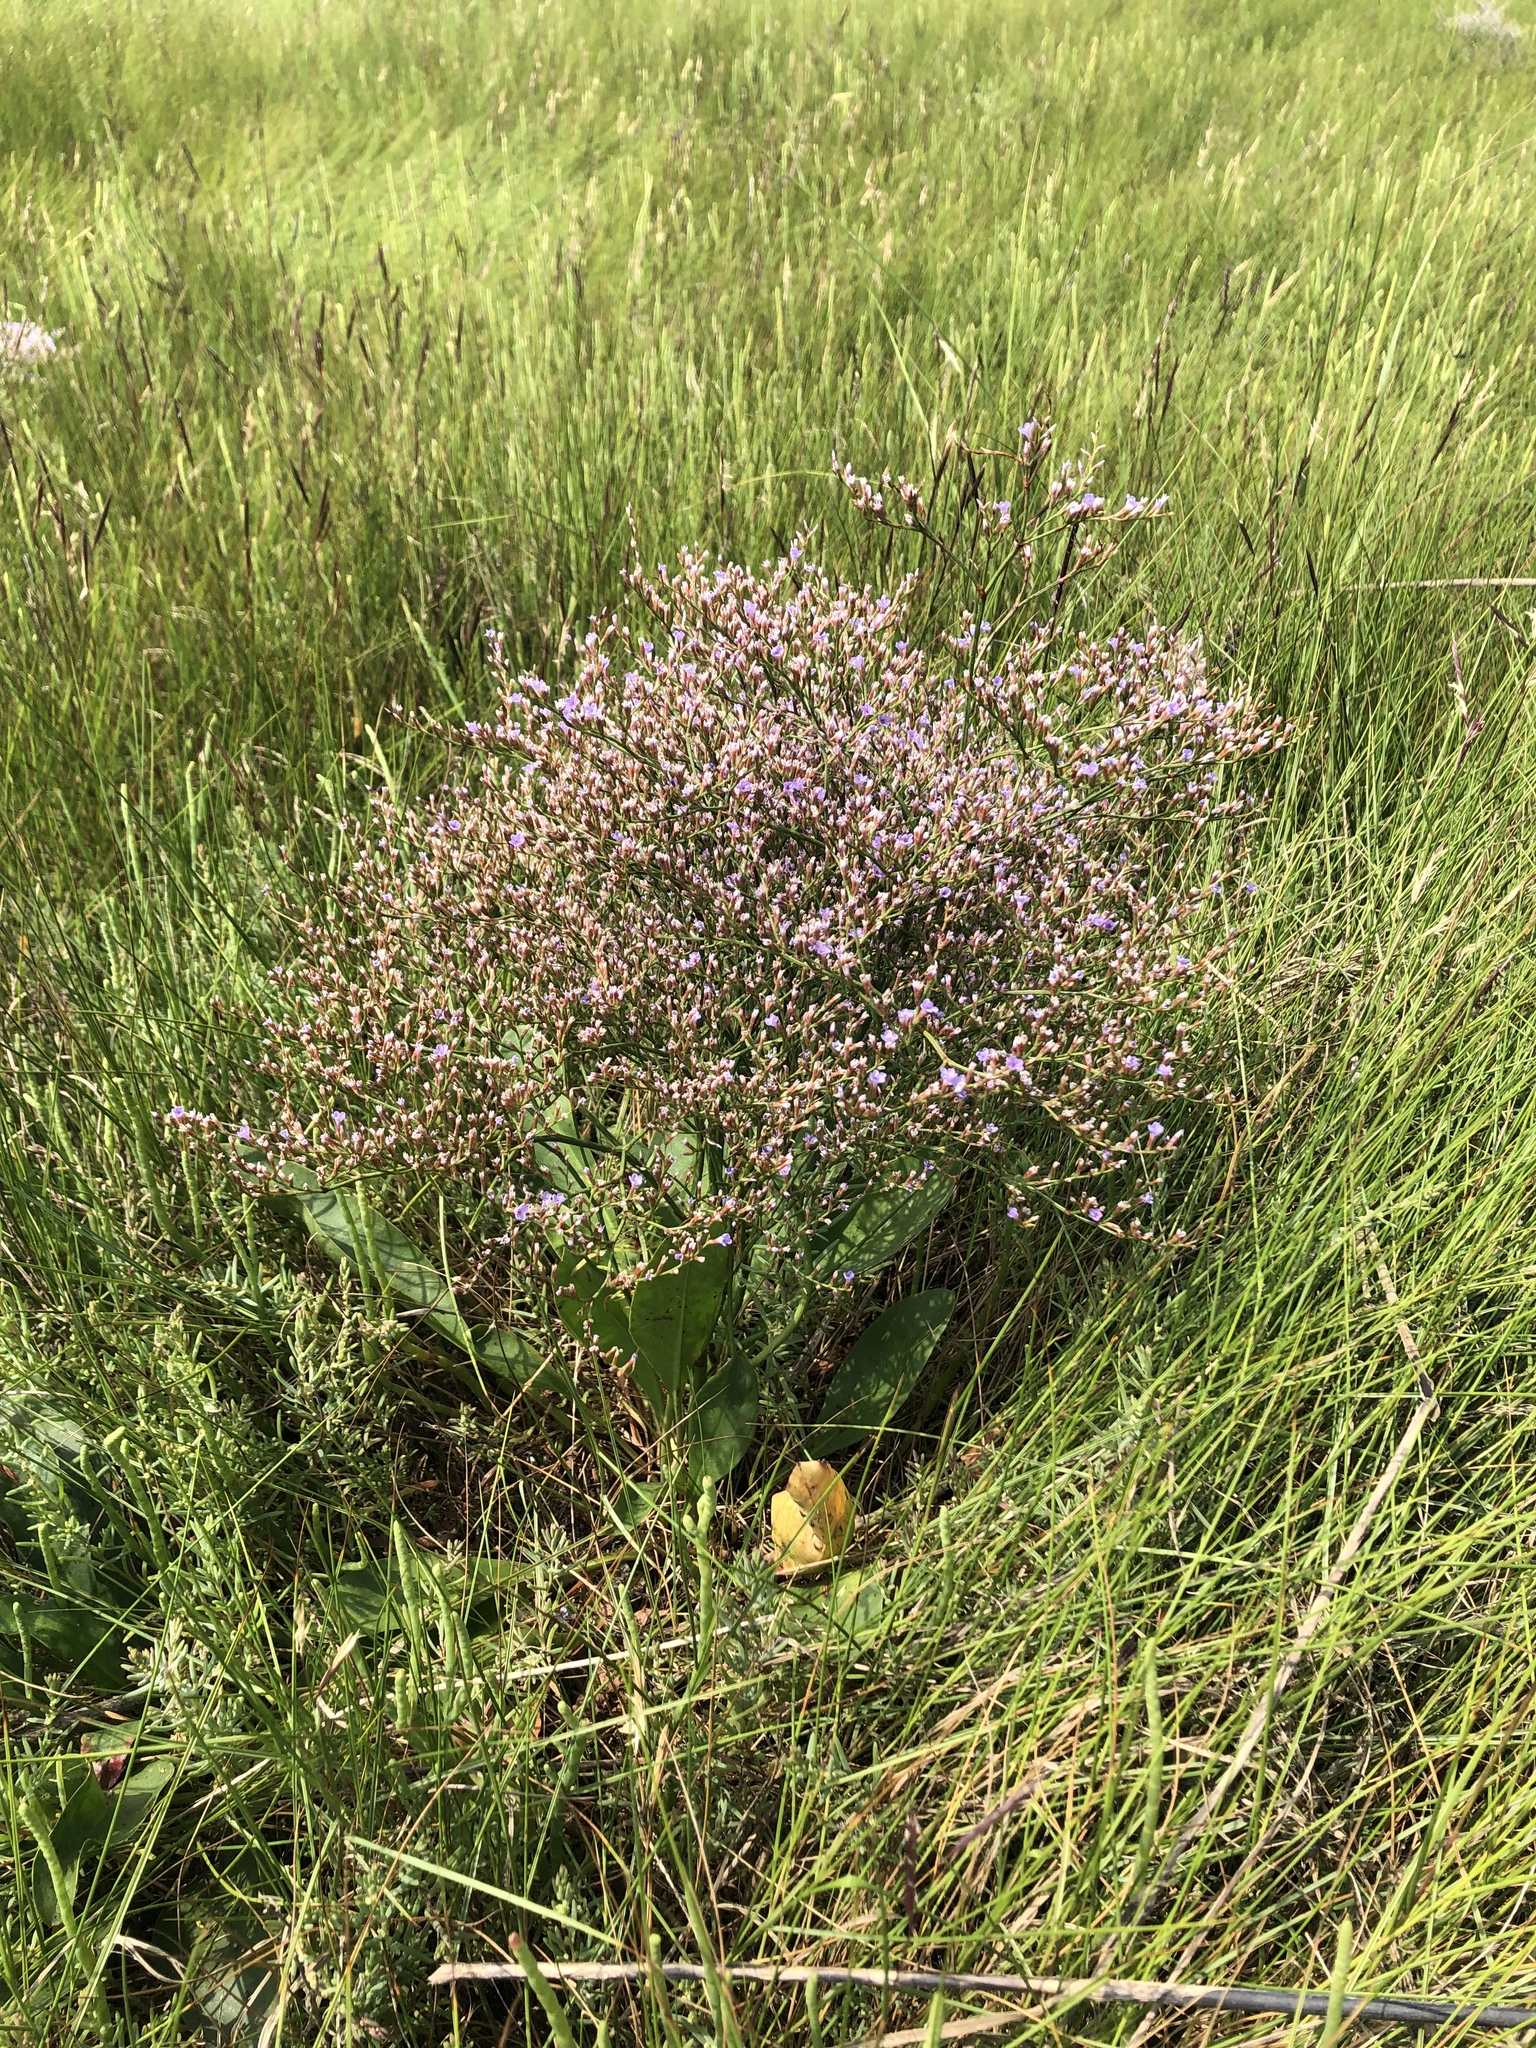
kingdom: Plantae
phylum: Tracheophyta
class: Magnoliopsida
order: Caryophyllales
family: Plumbaginaceae
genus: Limonium
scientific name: Limonium carolinianum
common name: Carolina sea lavender
